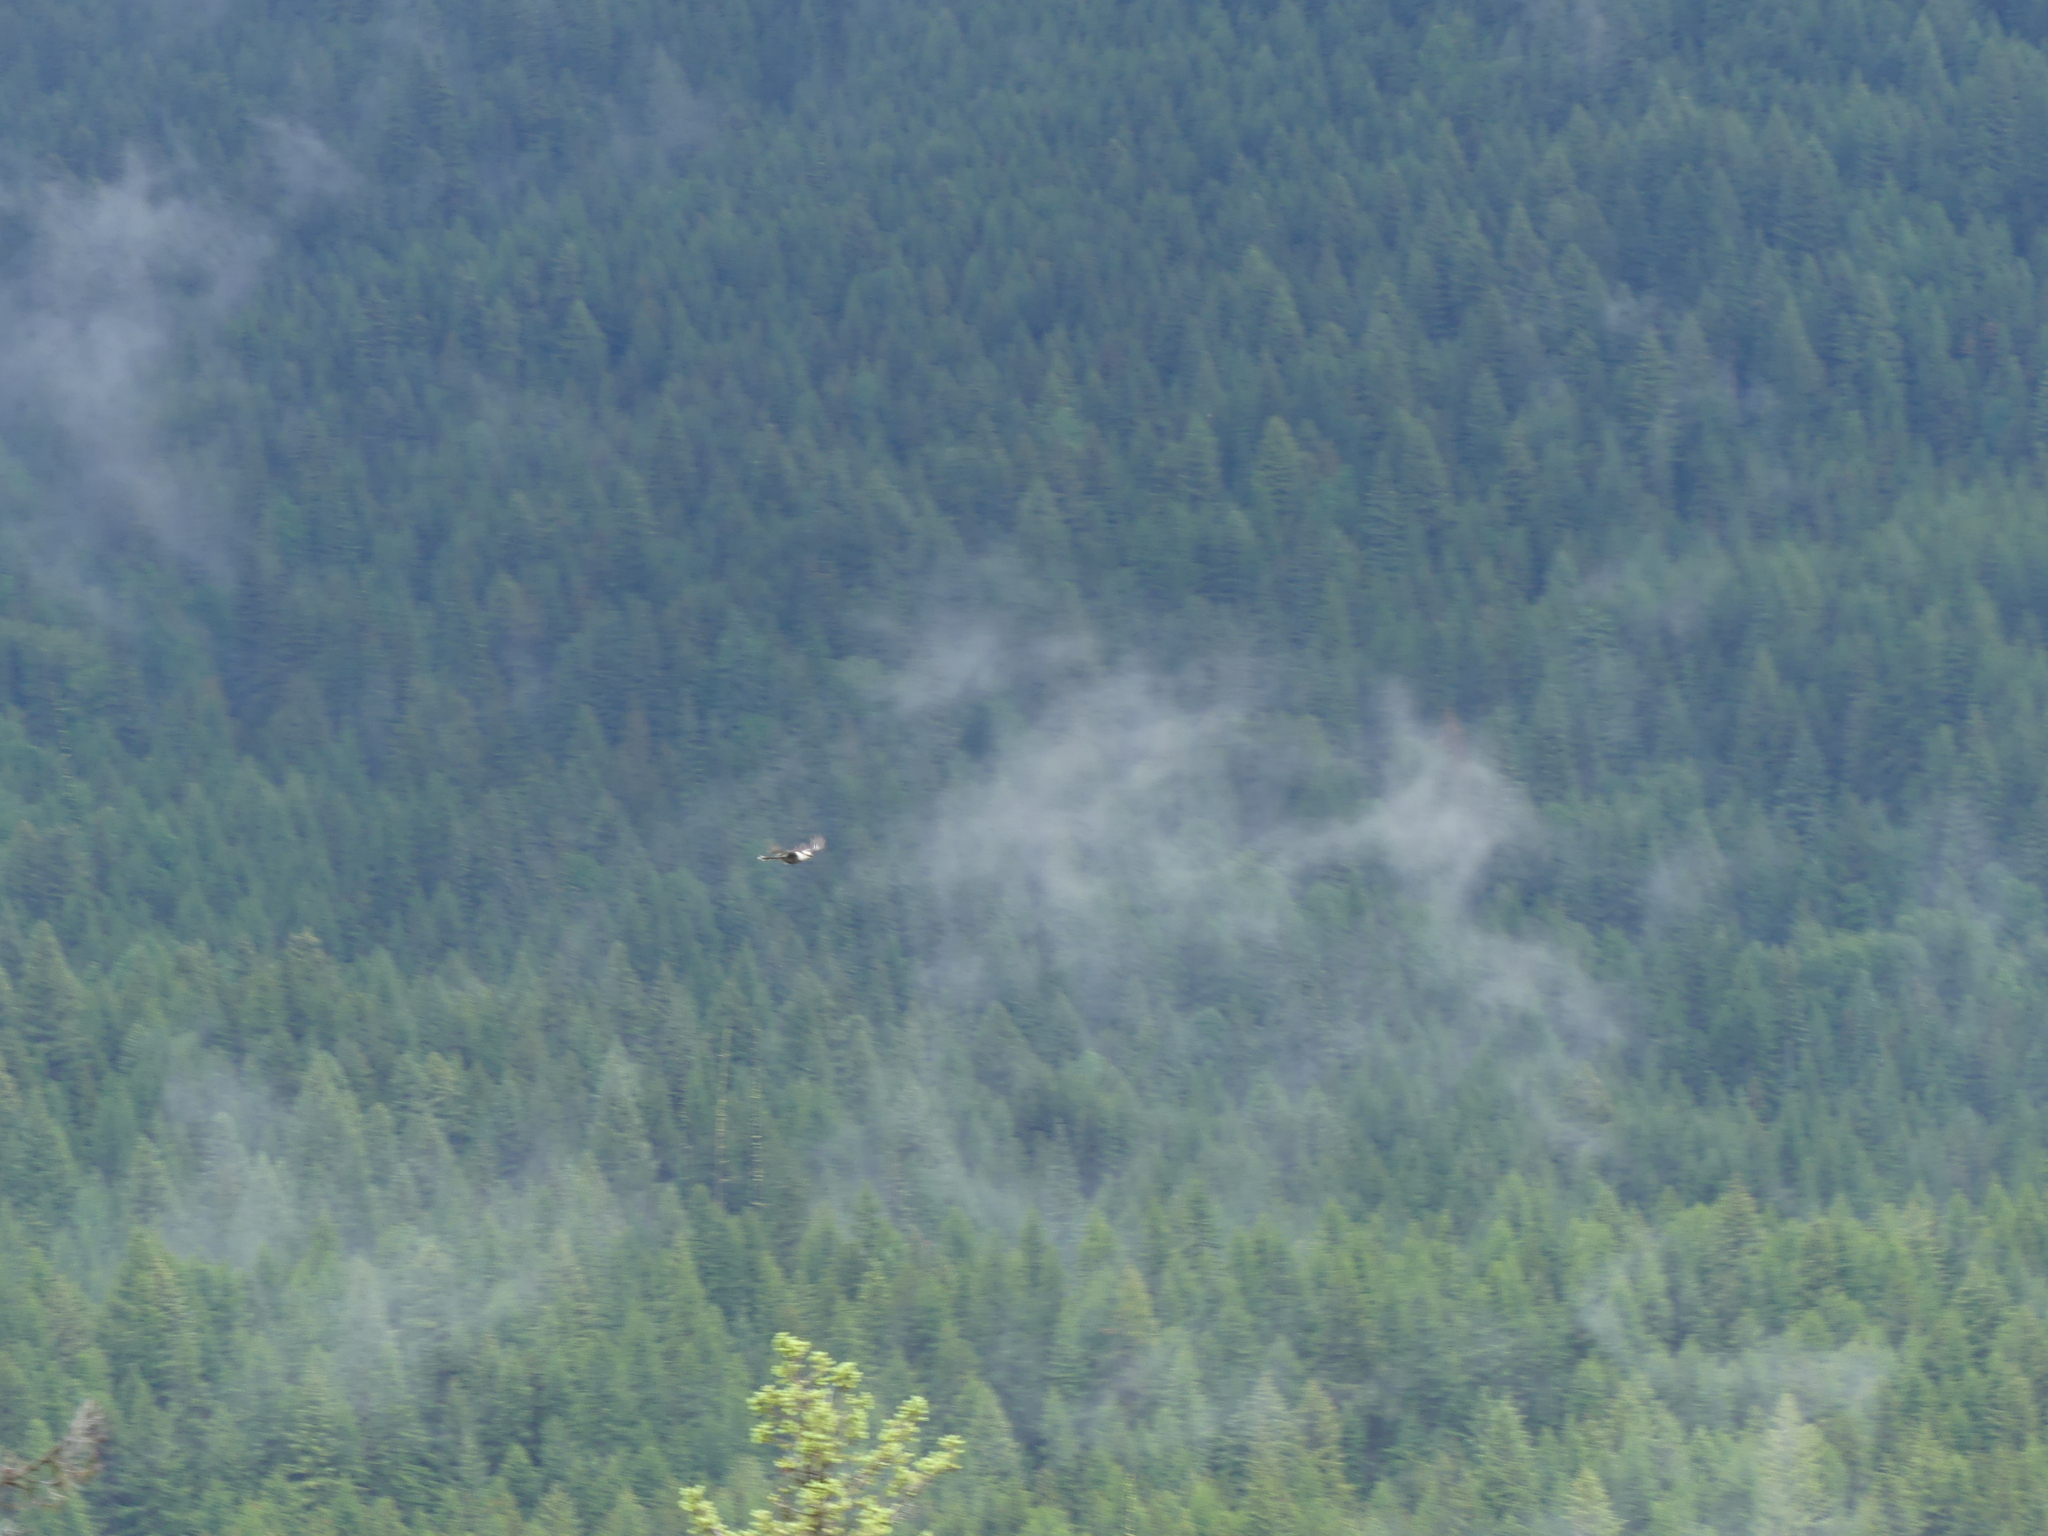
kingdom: Animalia
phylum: Chordata
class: Aves
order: Passeriformes
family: Corvidae
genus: Perisoreus
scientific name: Perisoreus canadensis
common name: Gray jay
